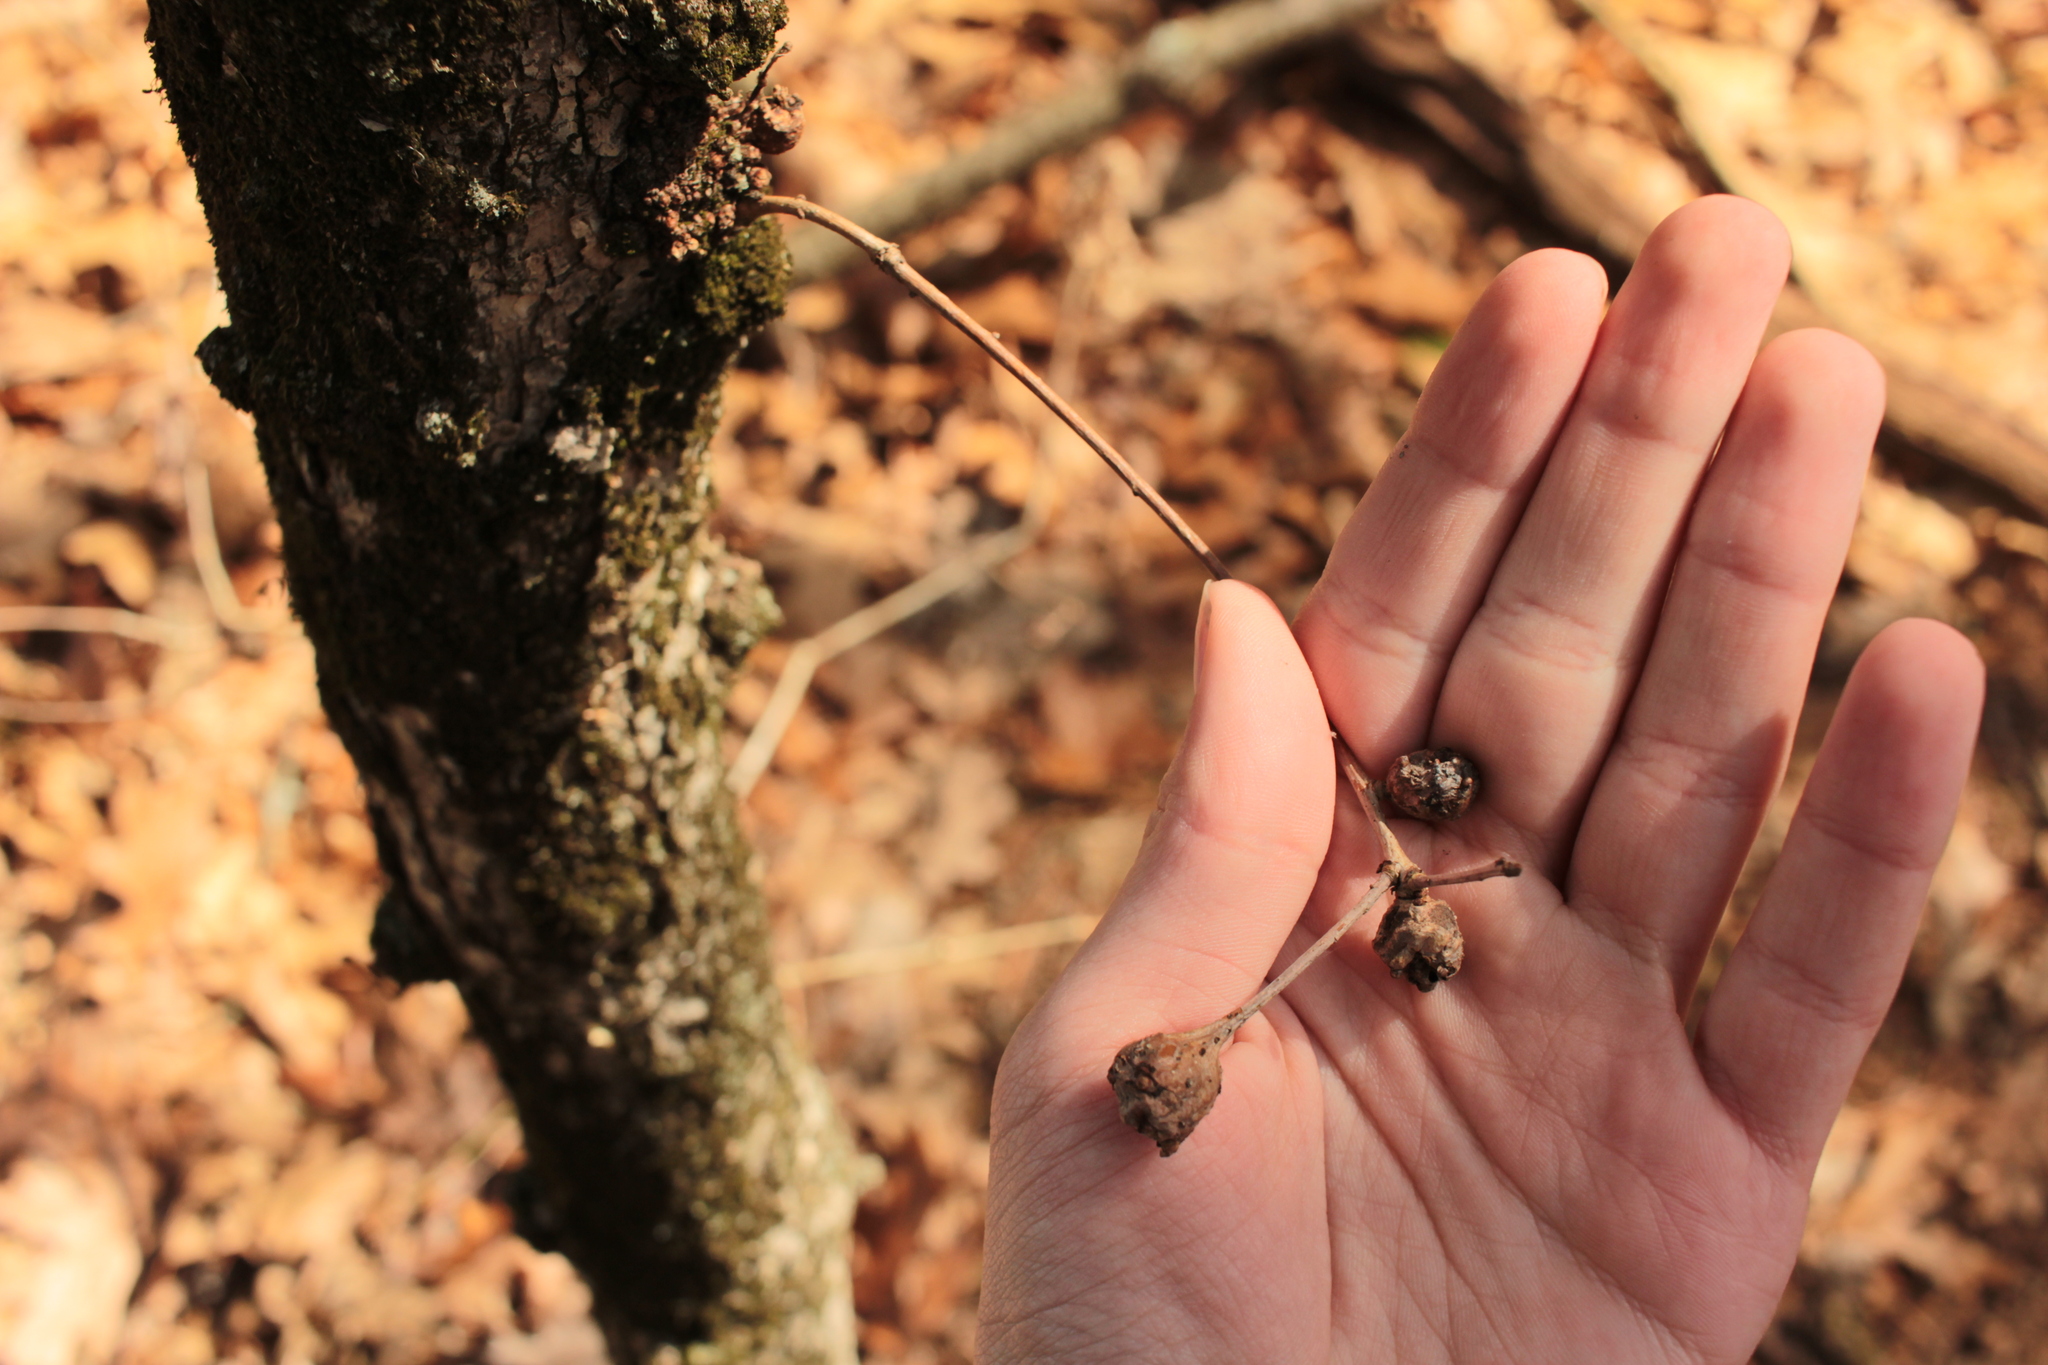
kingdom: Animalia
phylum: Arthropoda
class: Insecta
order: Hymenoptera
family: Cynipidae
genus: Callirhytis
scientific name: Callirhytis clavula
